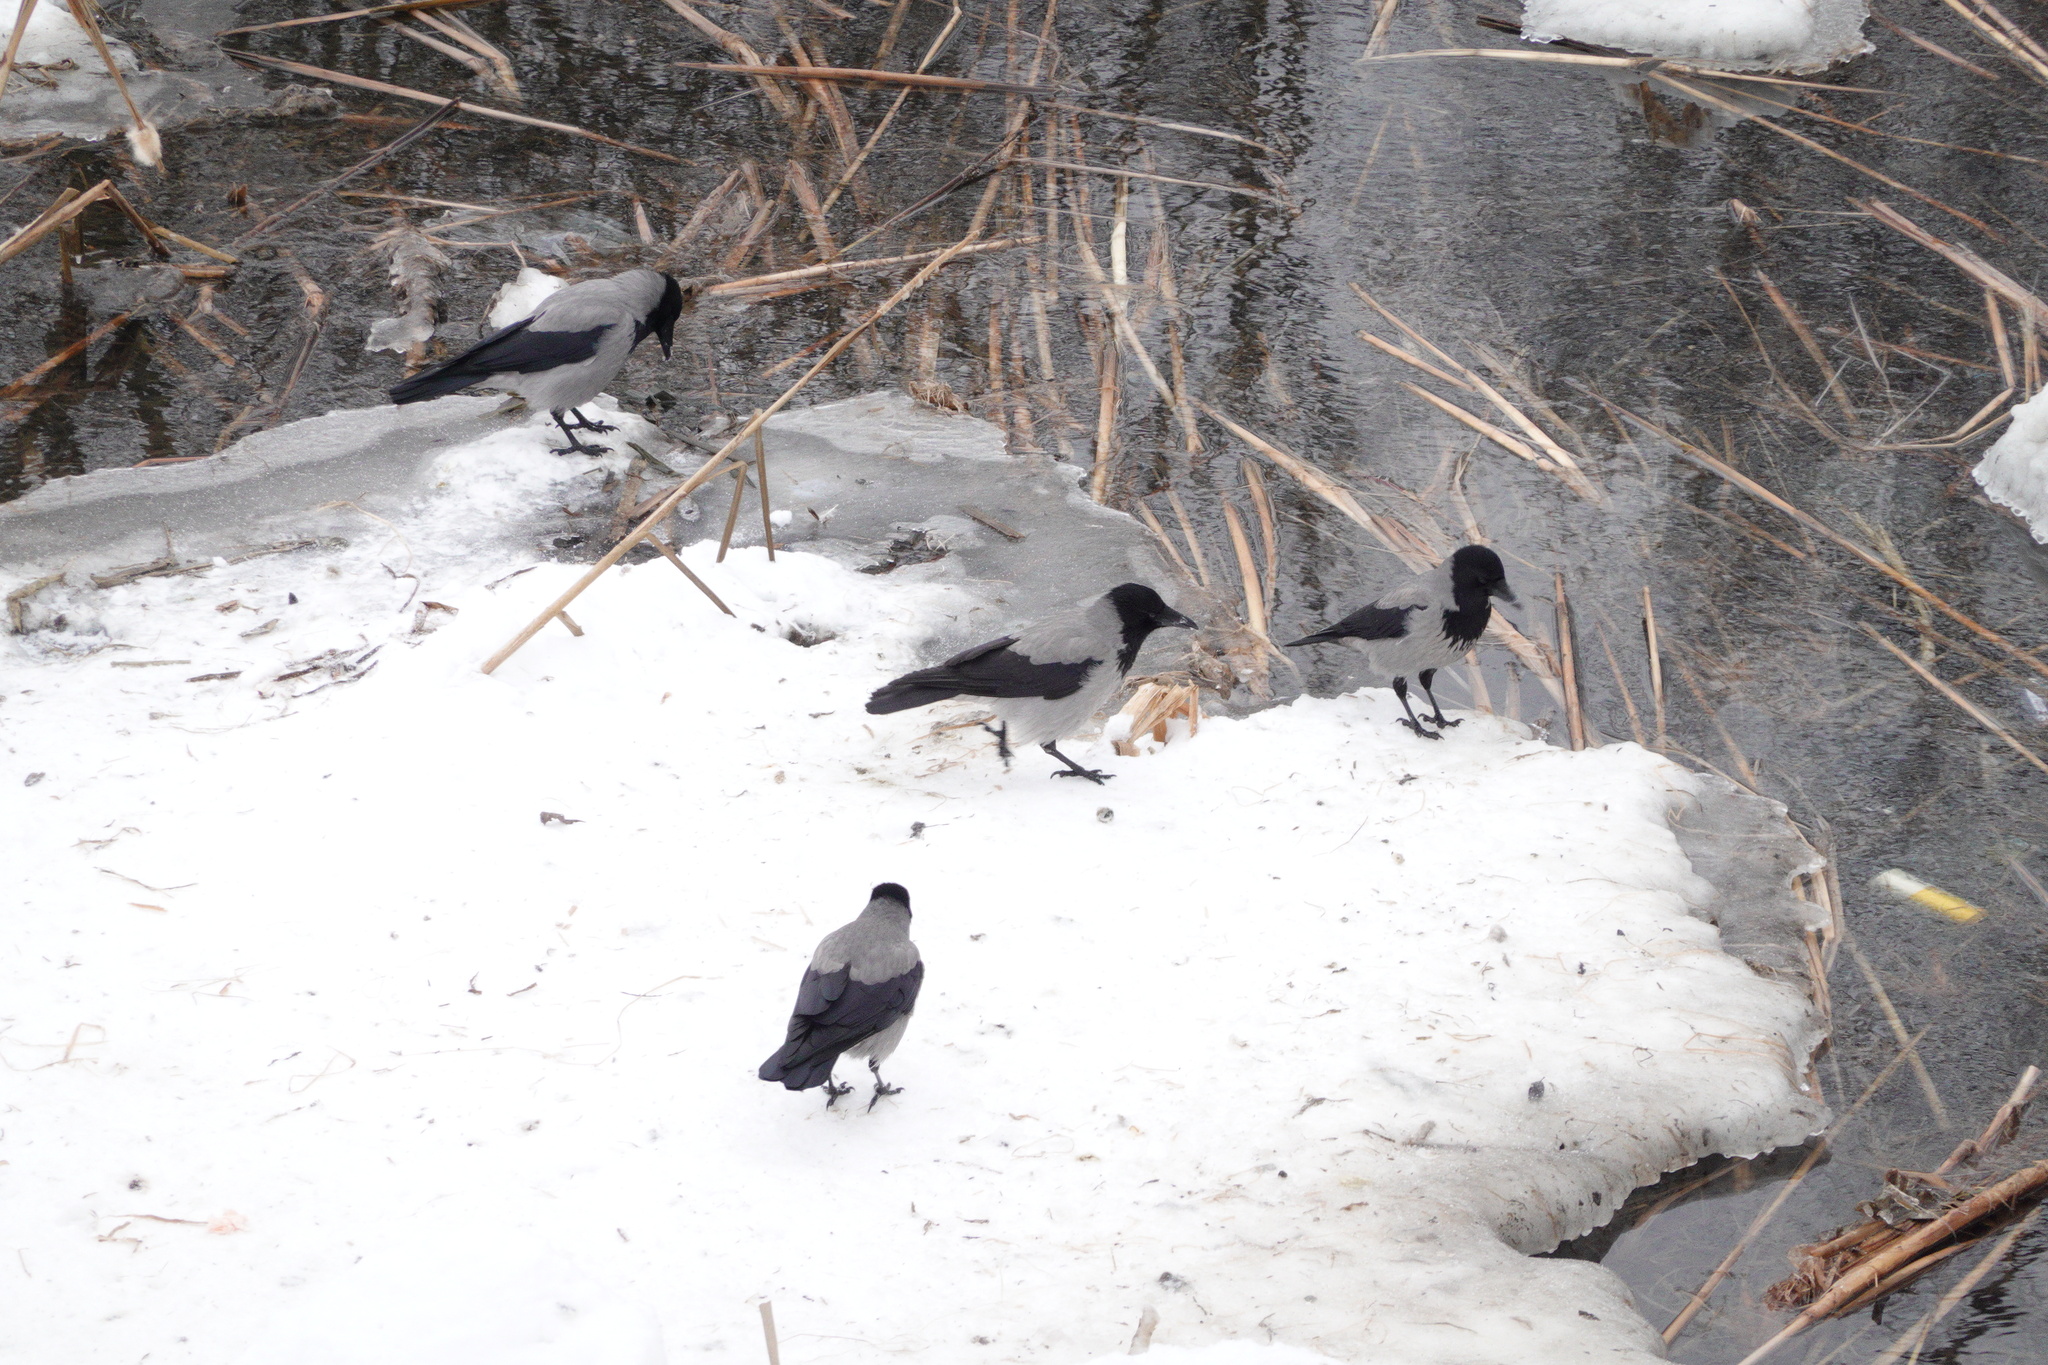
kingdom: Animalia
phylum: Chordata
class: Aves
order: Passeriformes
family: Corvidae
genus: Corvus
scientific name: Corvus cornix
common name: Hooded crow
